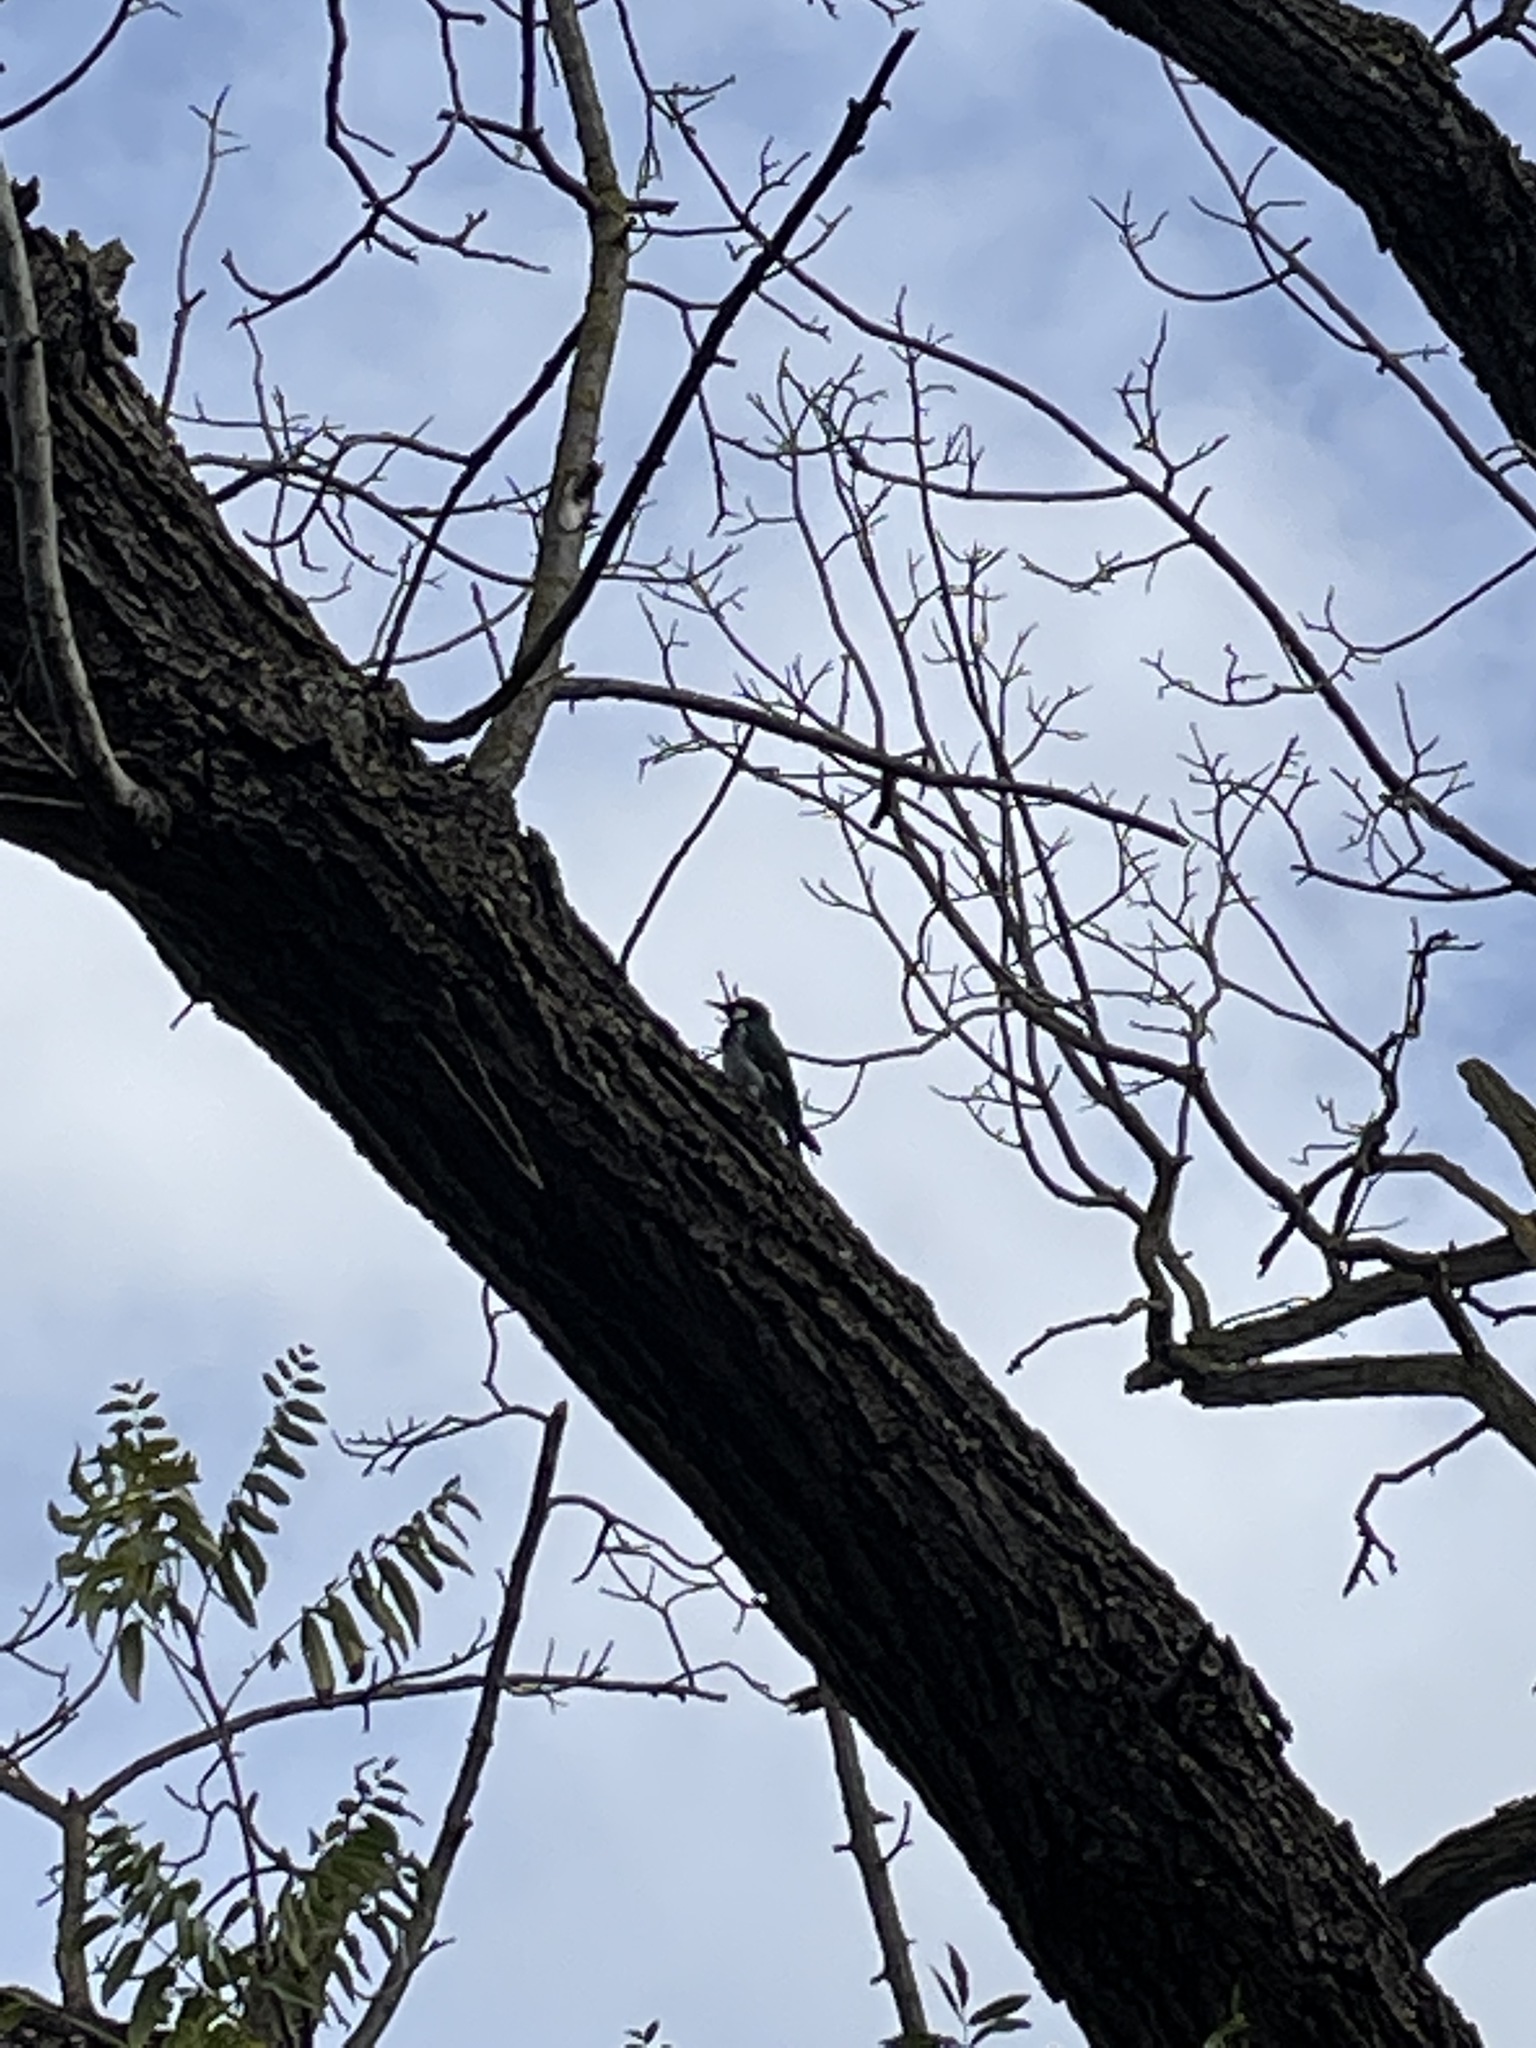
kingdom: Animalia
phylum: Chordata
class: Aves
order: Piciformes
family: Picidae
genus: Melanerpes
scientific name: Melanerpes formicivorus
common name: Acorn woodpecker
